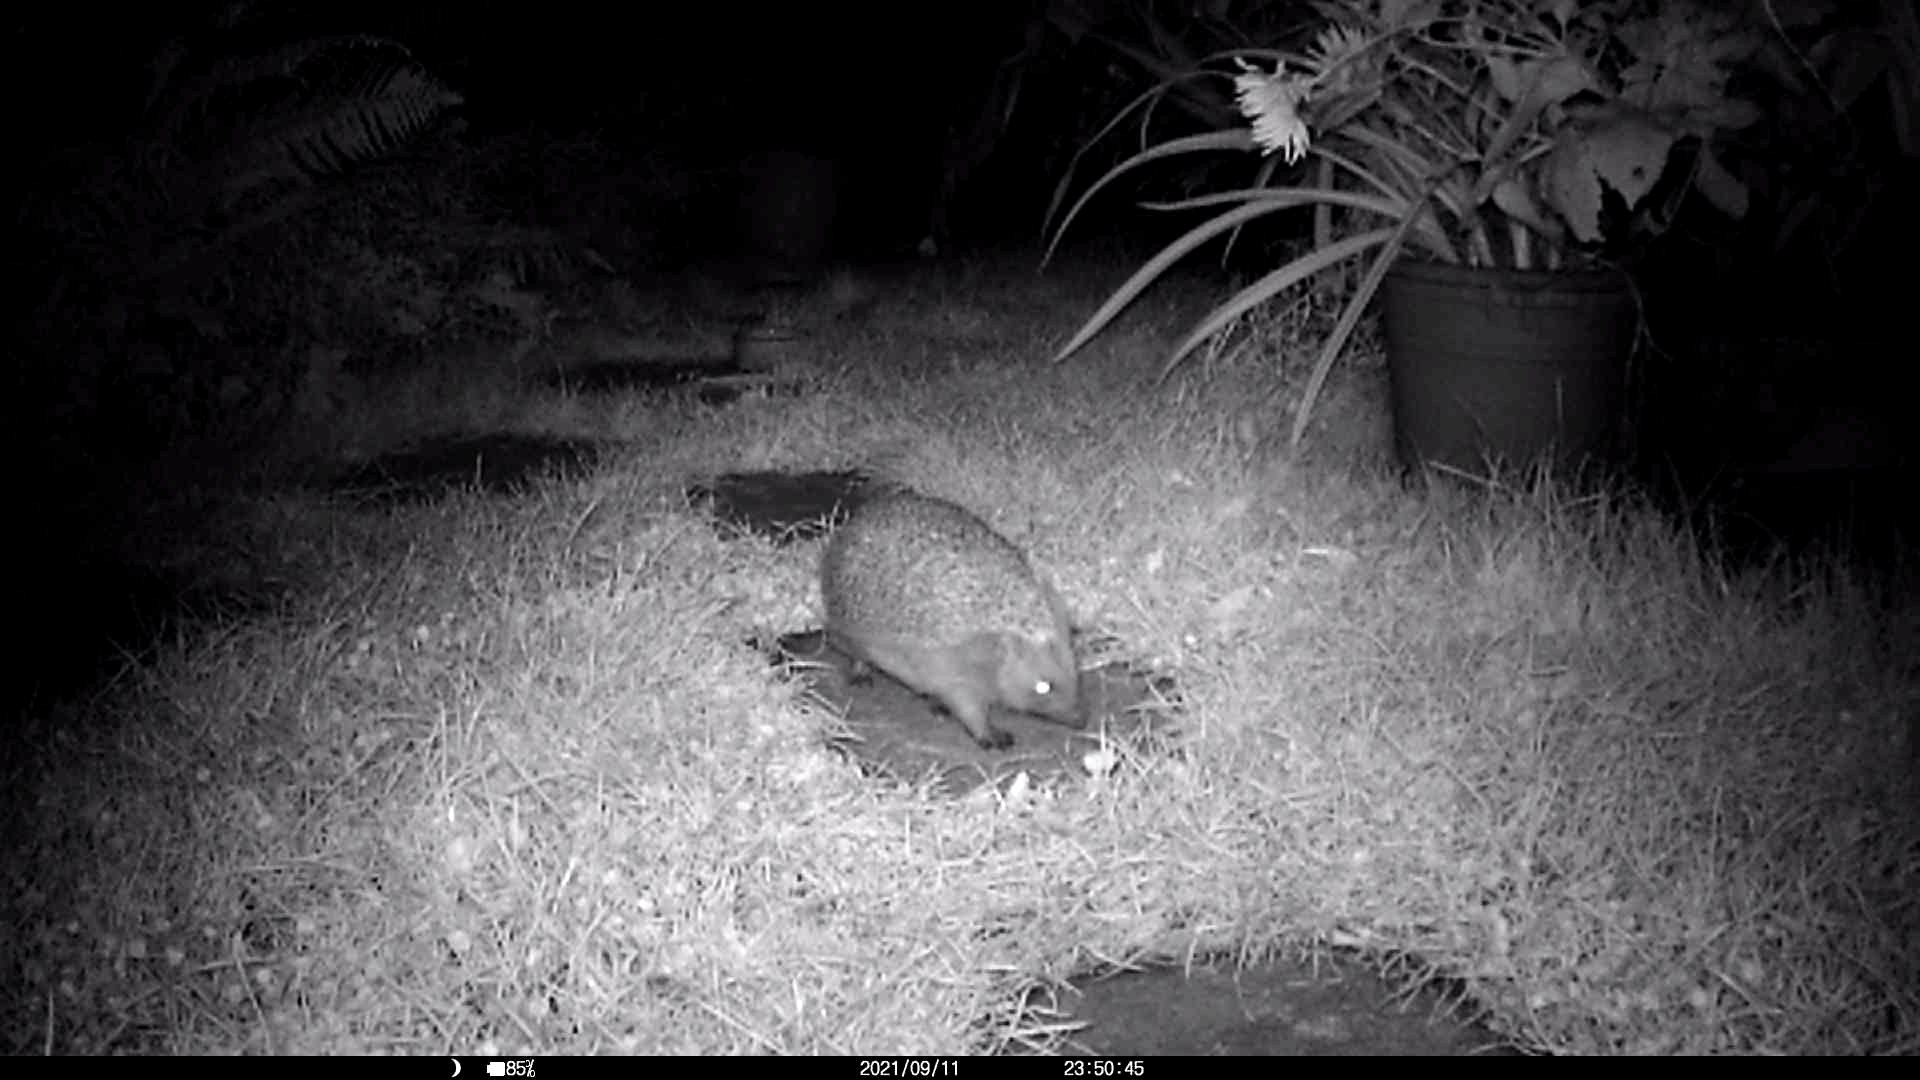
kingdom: Animalia
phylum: Chordata
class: Mammalia
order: Erinaceomorpha
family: Erinaceidae
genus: Erinaceus
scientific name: Erinaceus europaeus
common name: West european hedgehog
